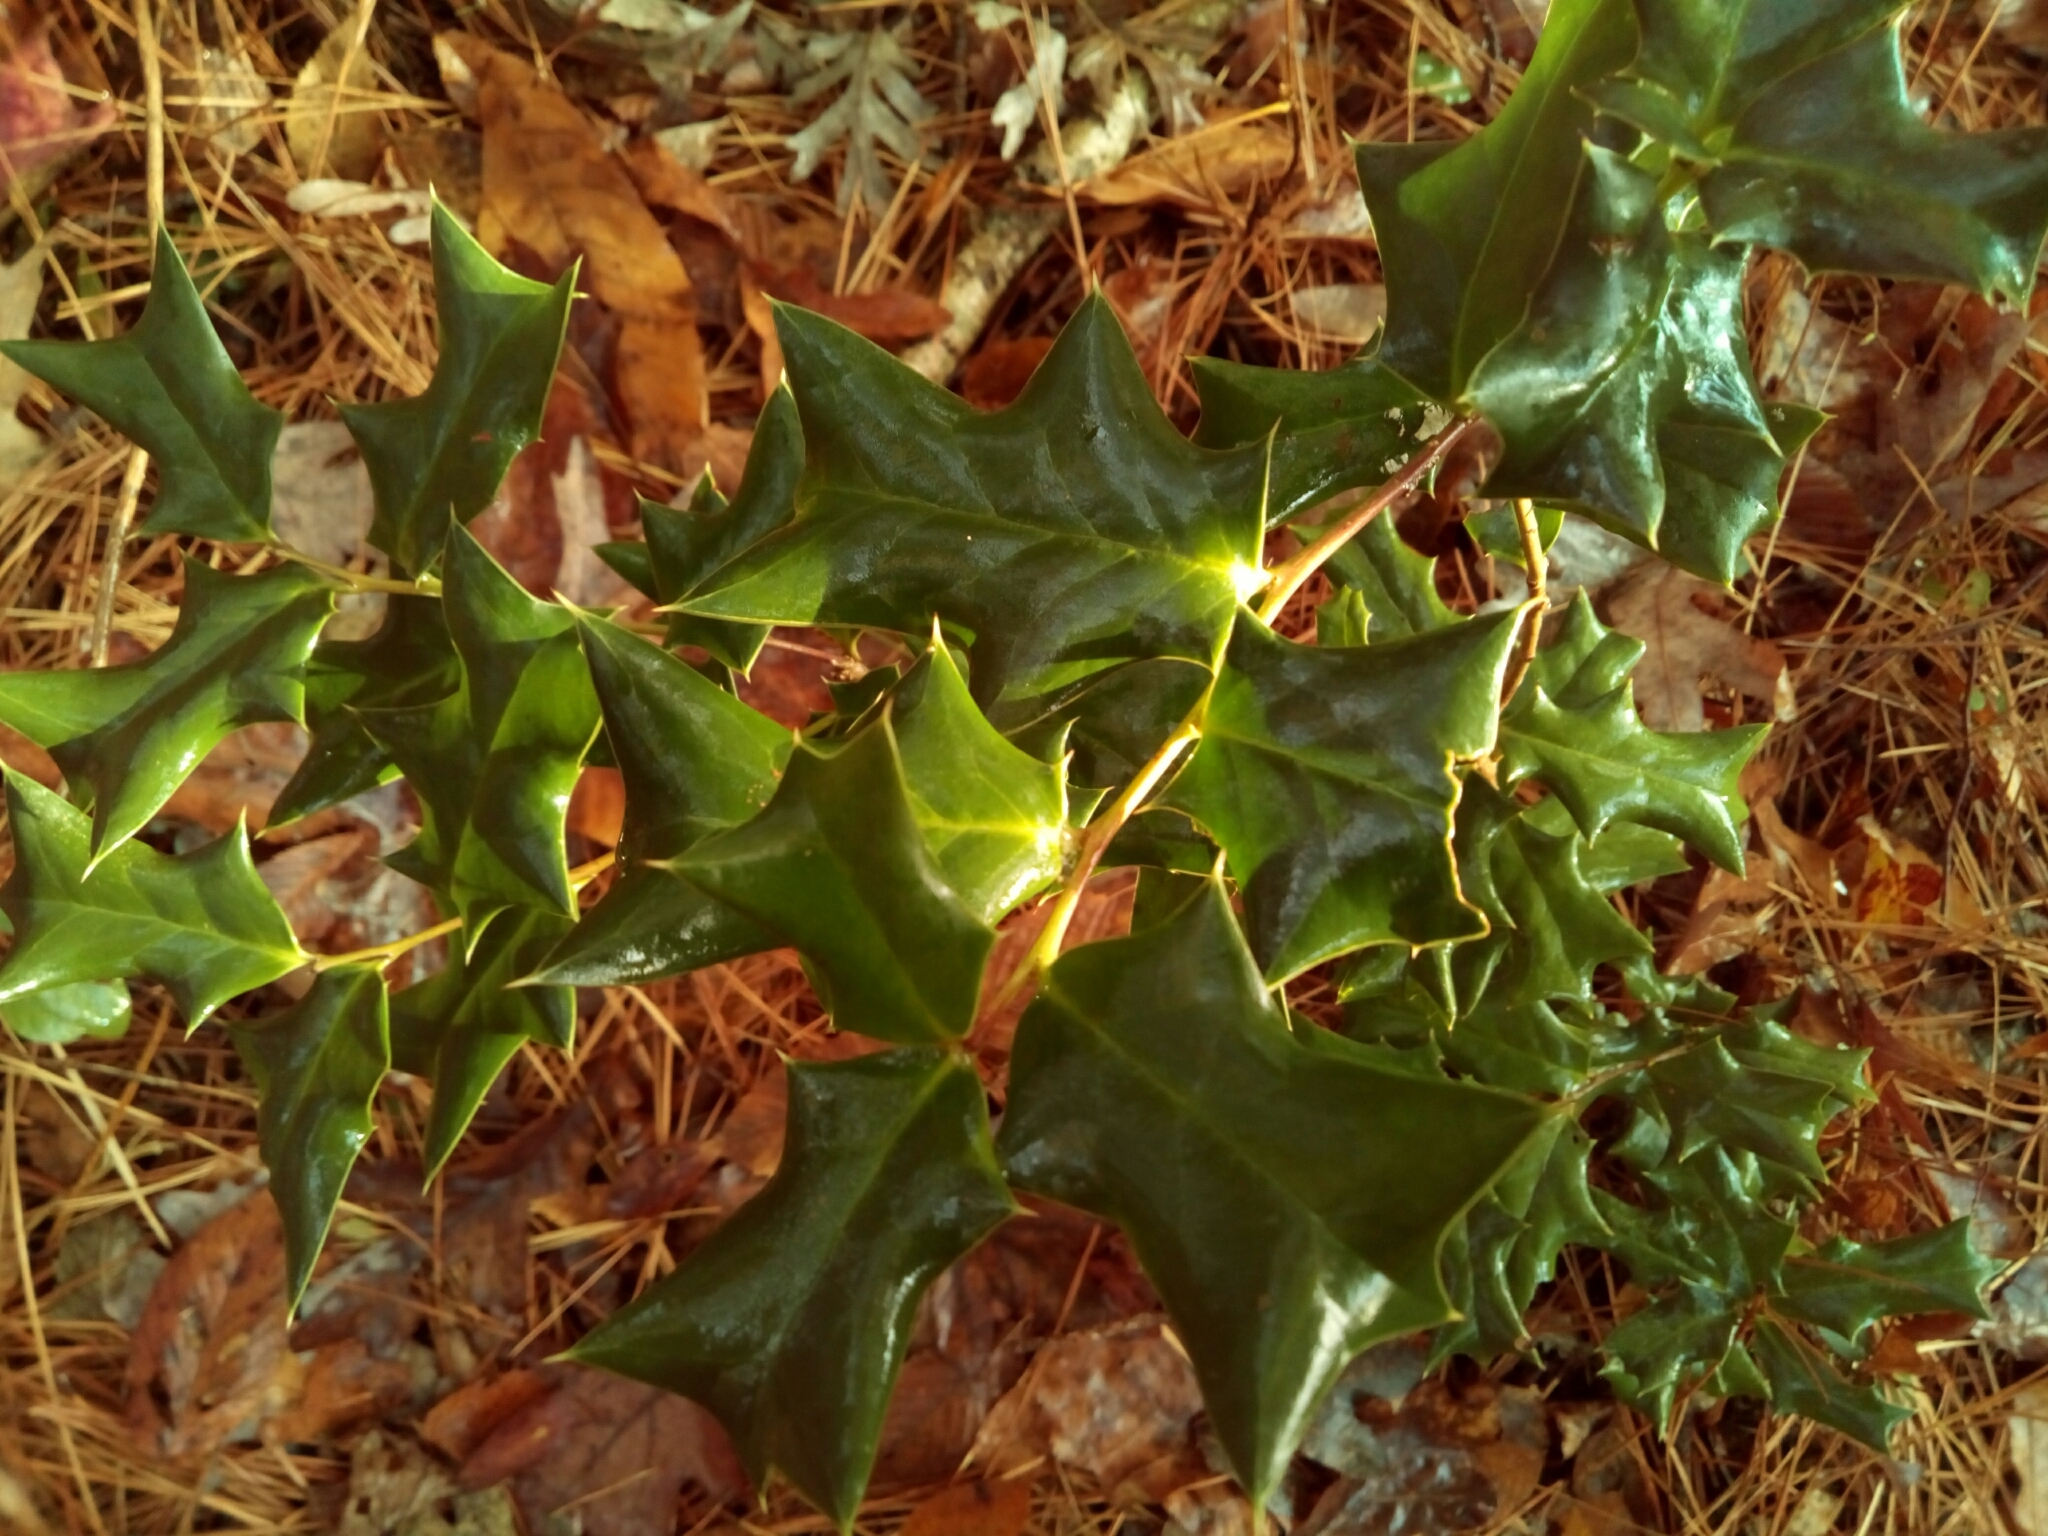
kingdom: Plantae
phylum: Tracheophyta
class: Magnoliopsida
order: Aquifoliales
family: Aquifoliaceae
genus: Ilex
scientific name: Ilex cornuta
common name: Chinese holly
